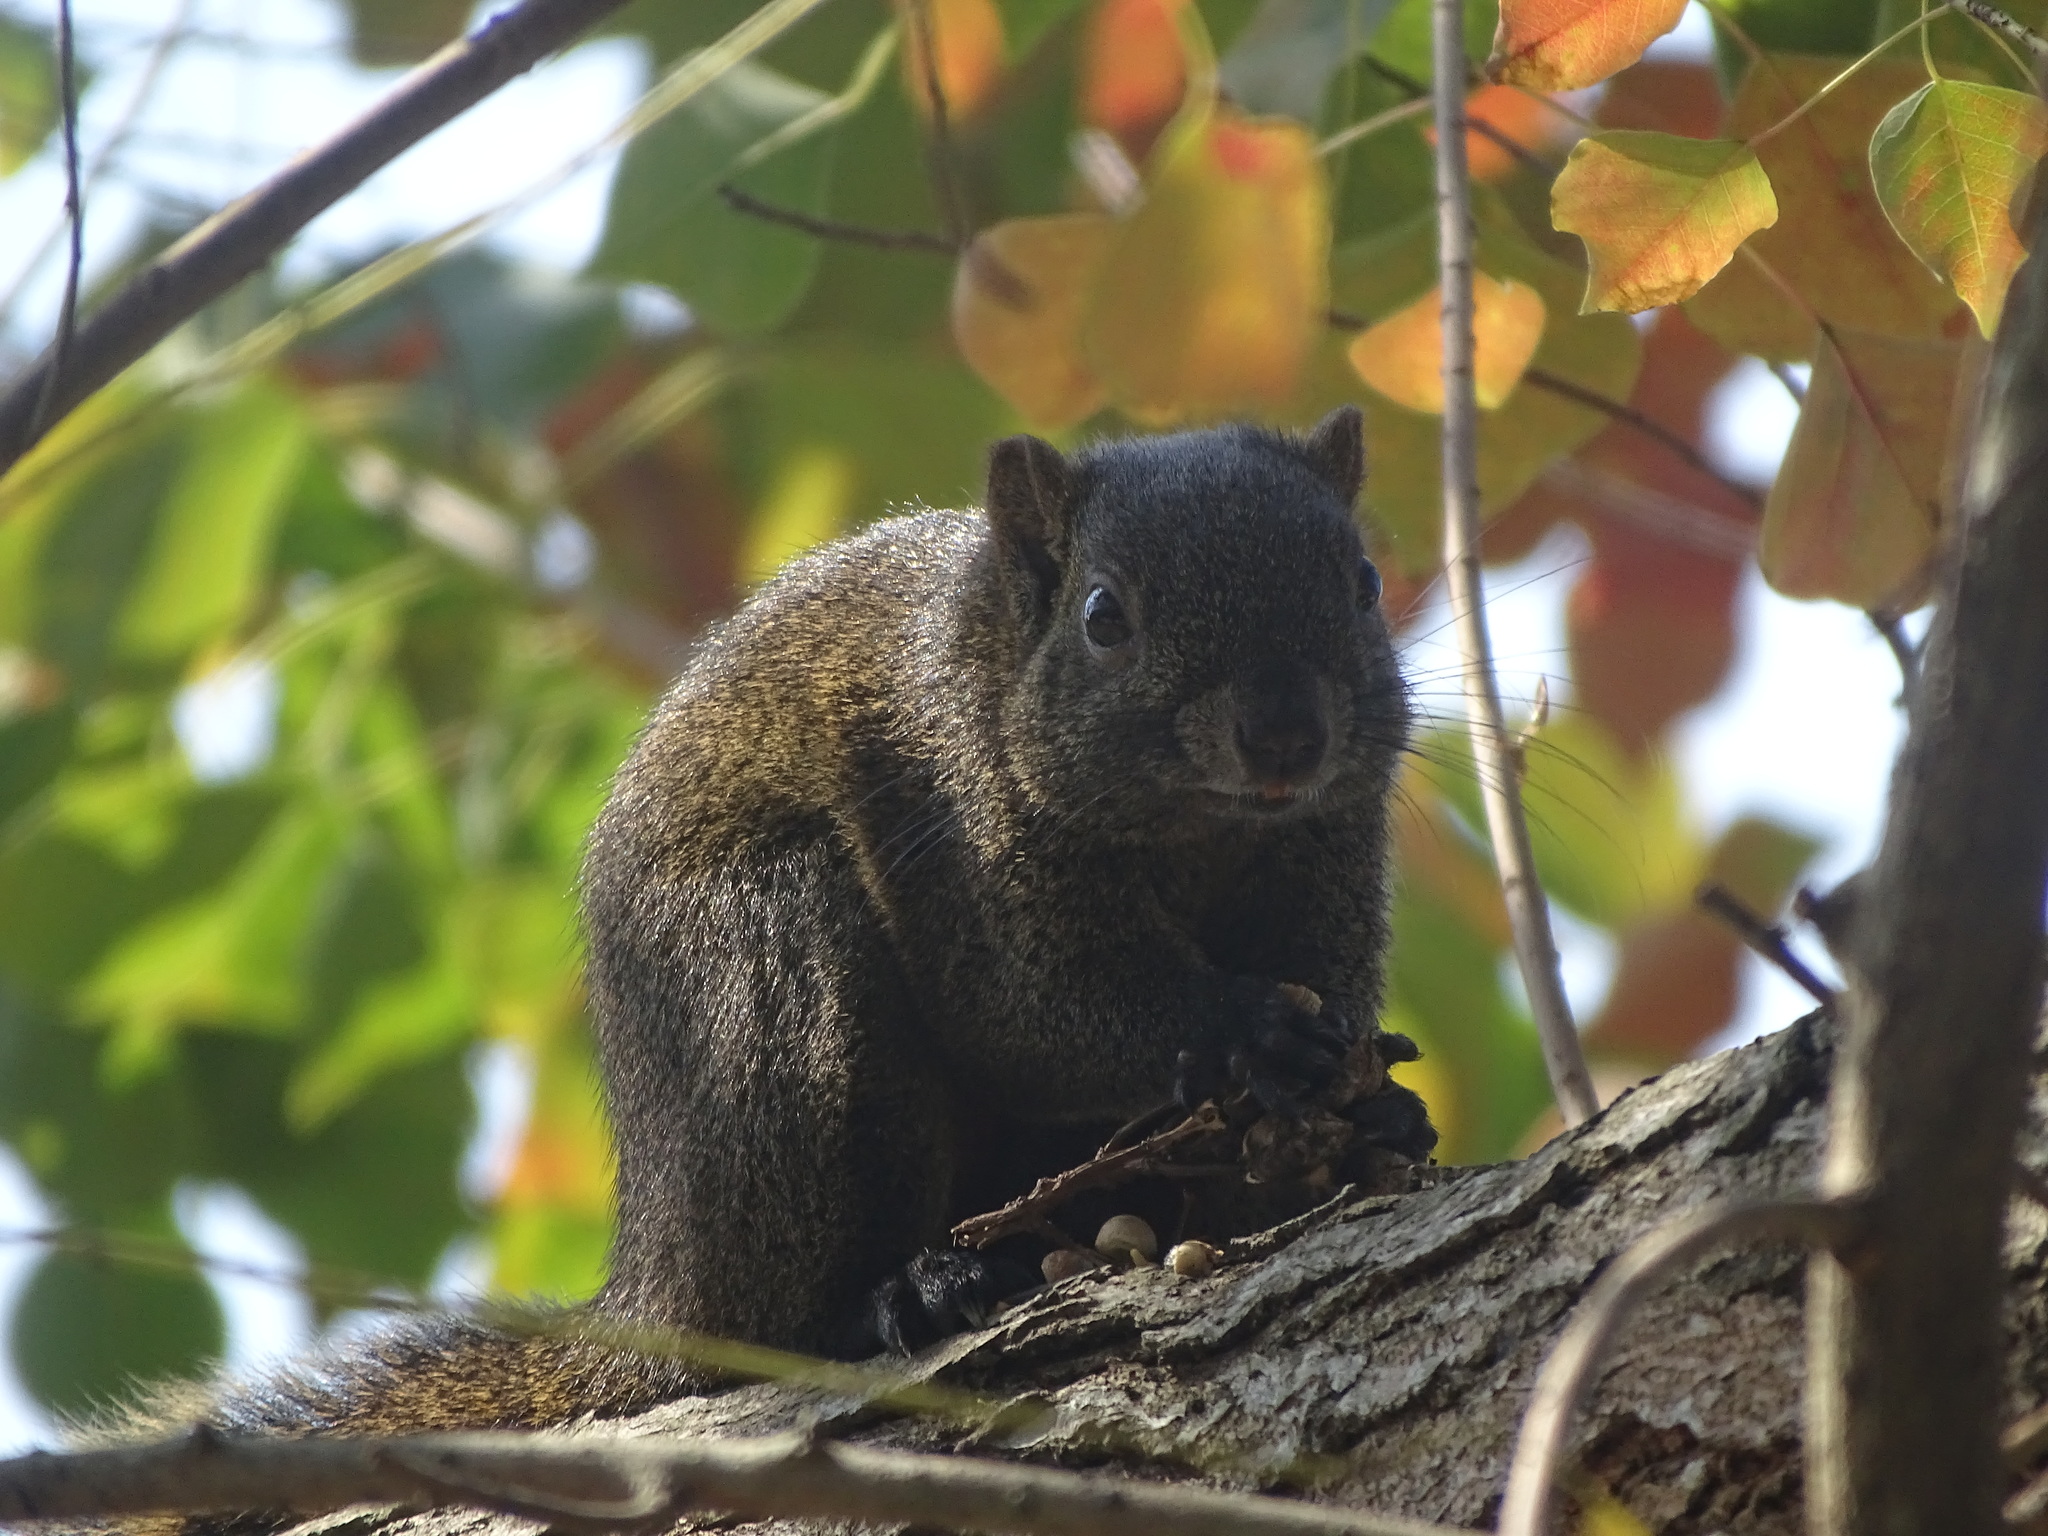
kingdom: Animalia
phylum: Chordata
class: Mammalia
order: Rodentia
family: Sciuridae
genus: Callosciurus
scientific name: Callosciurus erythraeus
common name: Pallas's squirrel
